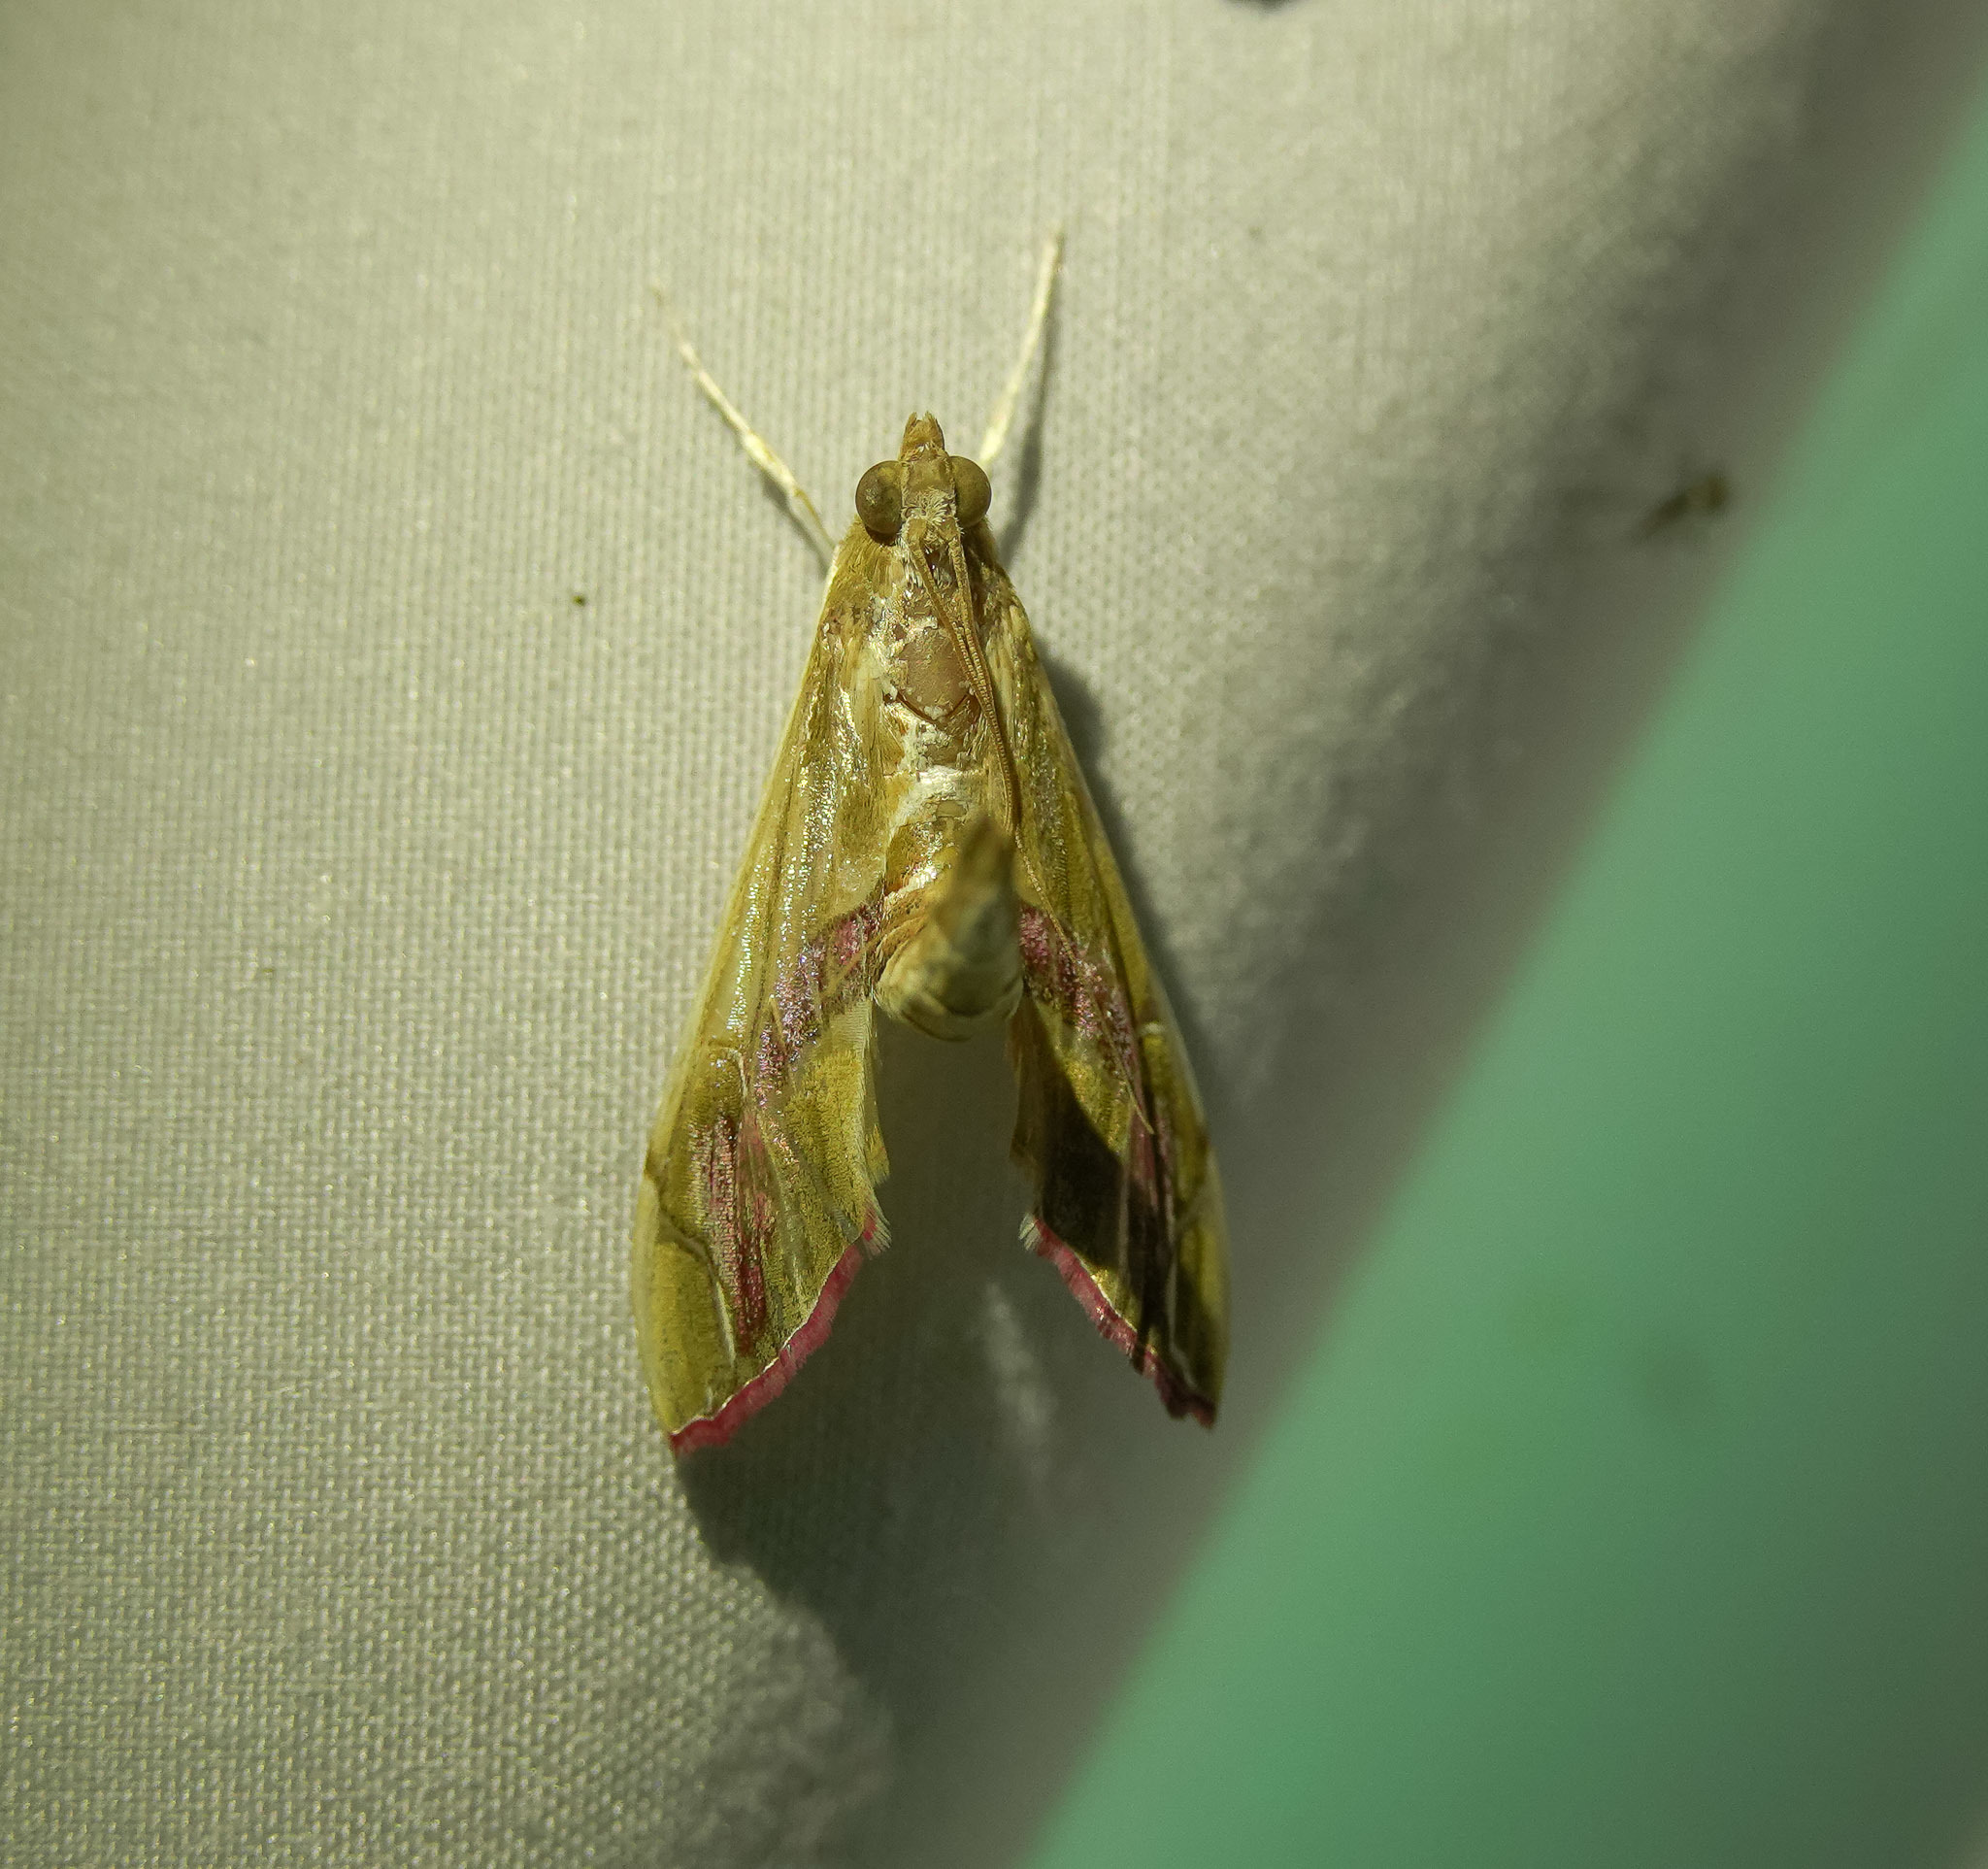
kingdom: Animalia
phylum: Arthropoda
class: Insecta
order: Lepidoptera
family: Crambidae
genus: Agathodes
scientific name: Agathodes ostentalis
